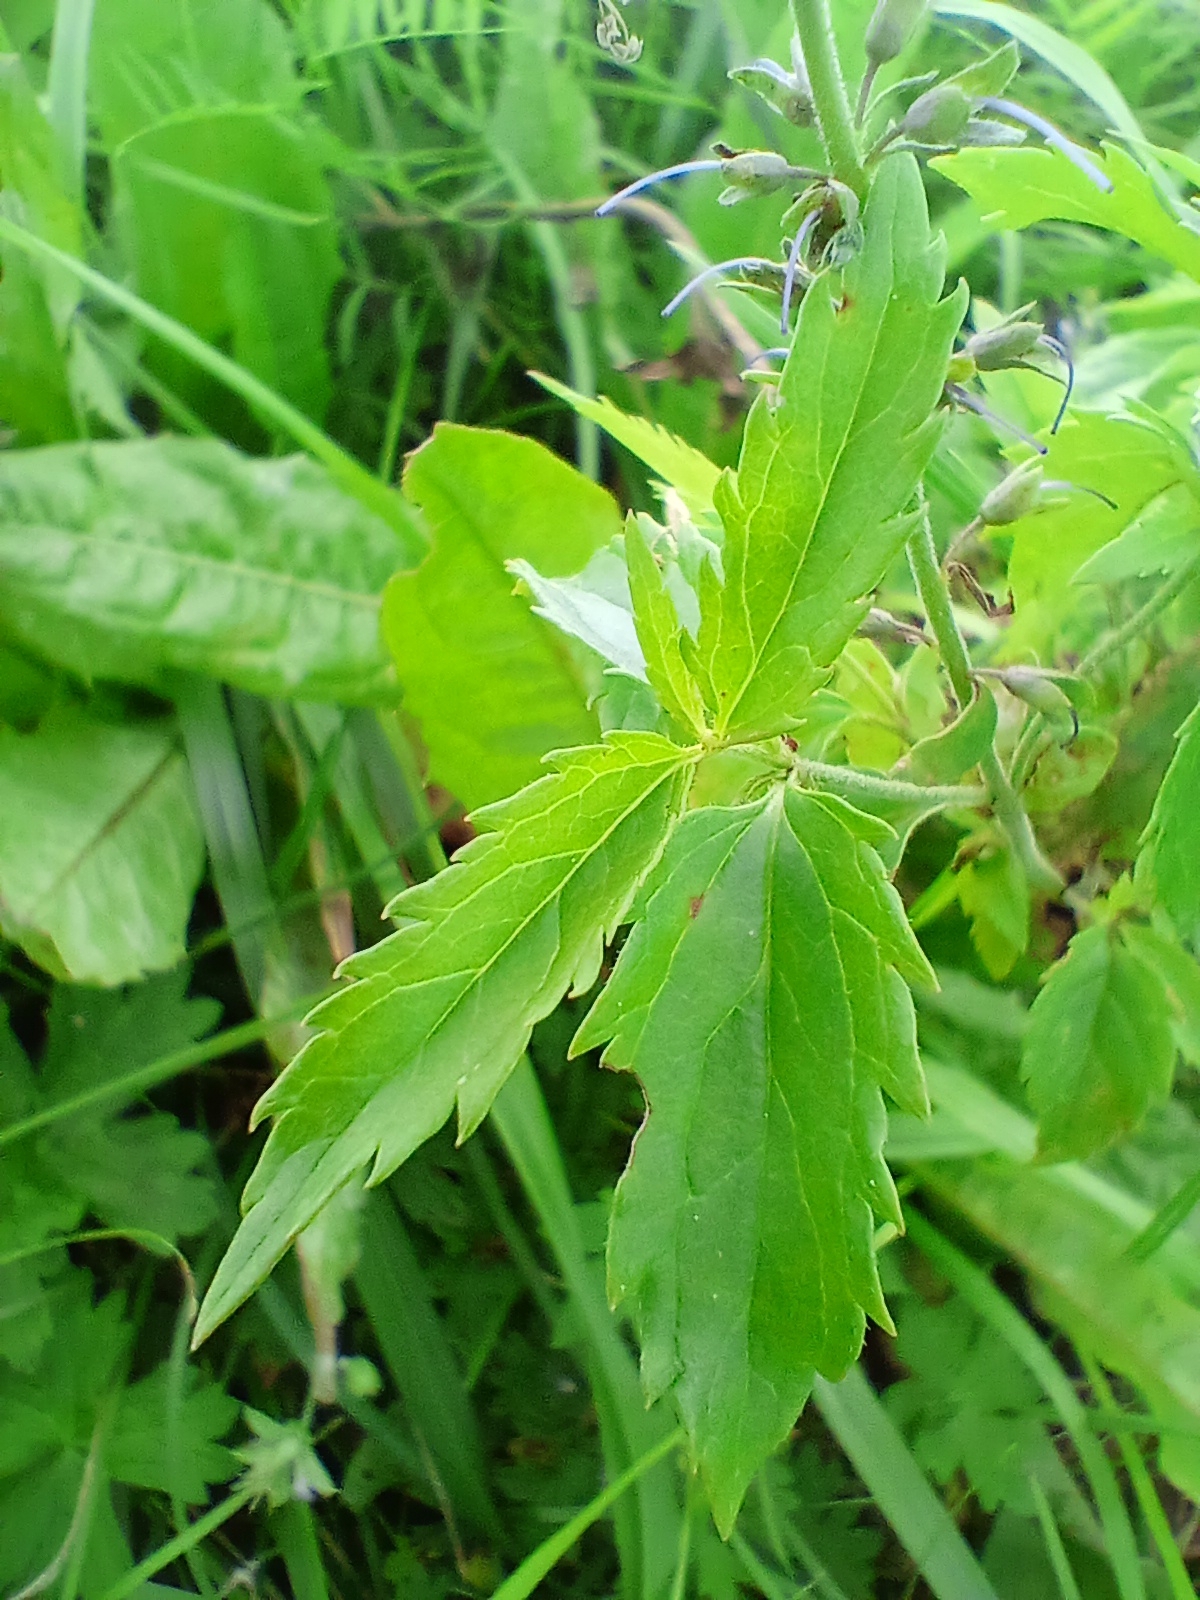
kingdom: Plantae
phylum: Tracheophyta
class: Magnoliopsida
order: Lamiales
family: Plantaginaceae
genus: Veronica
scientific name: Veronica longifolia
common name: Garden speedwell
